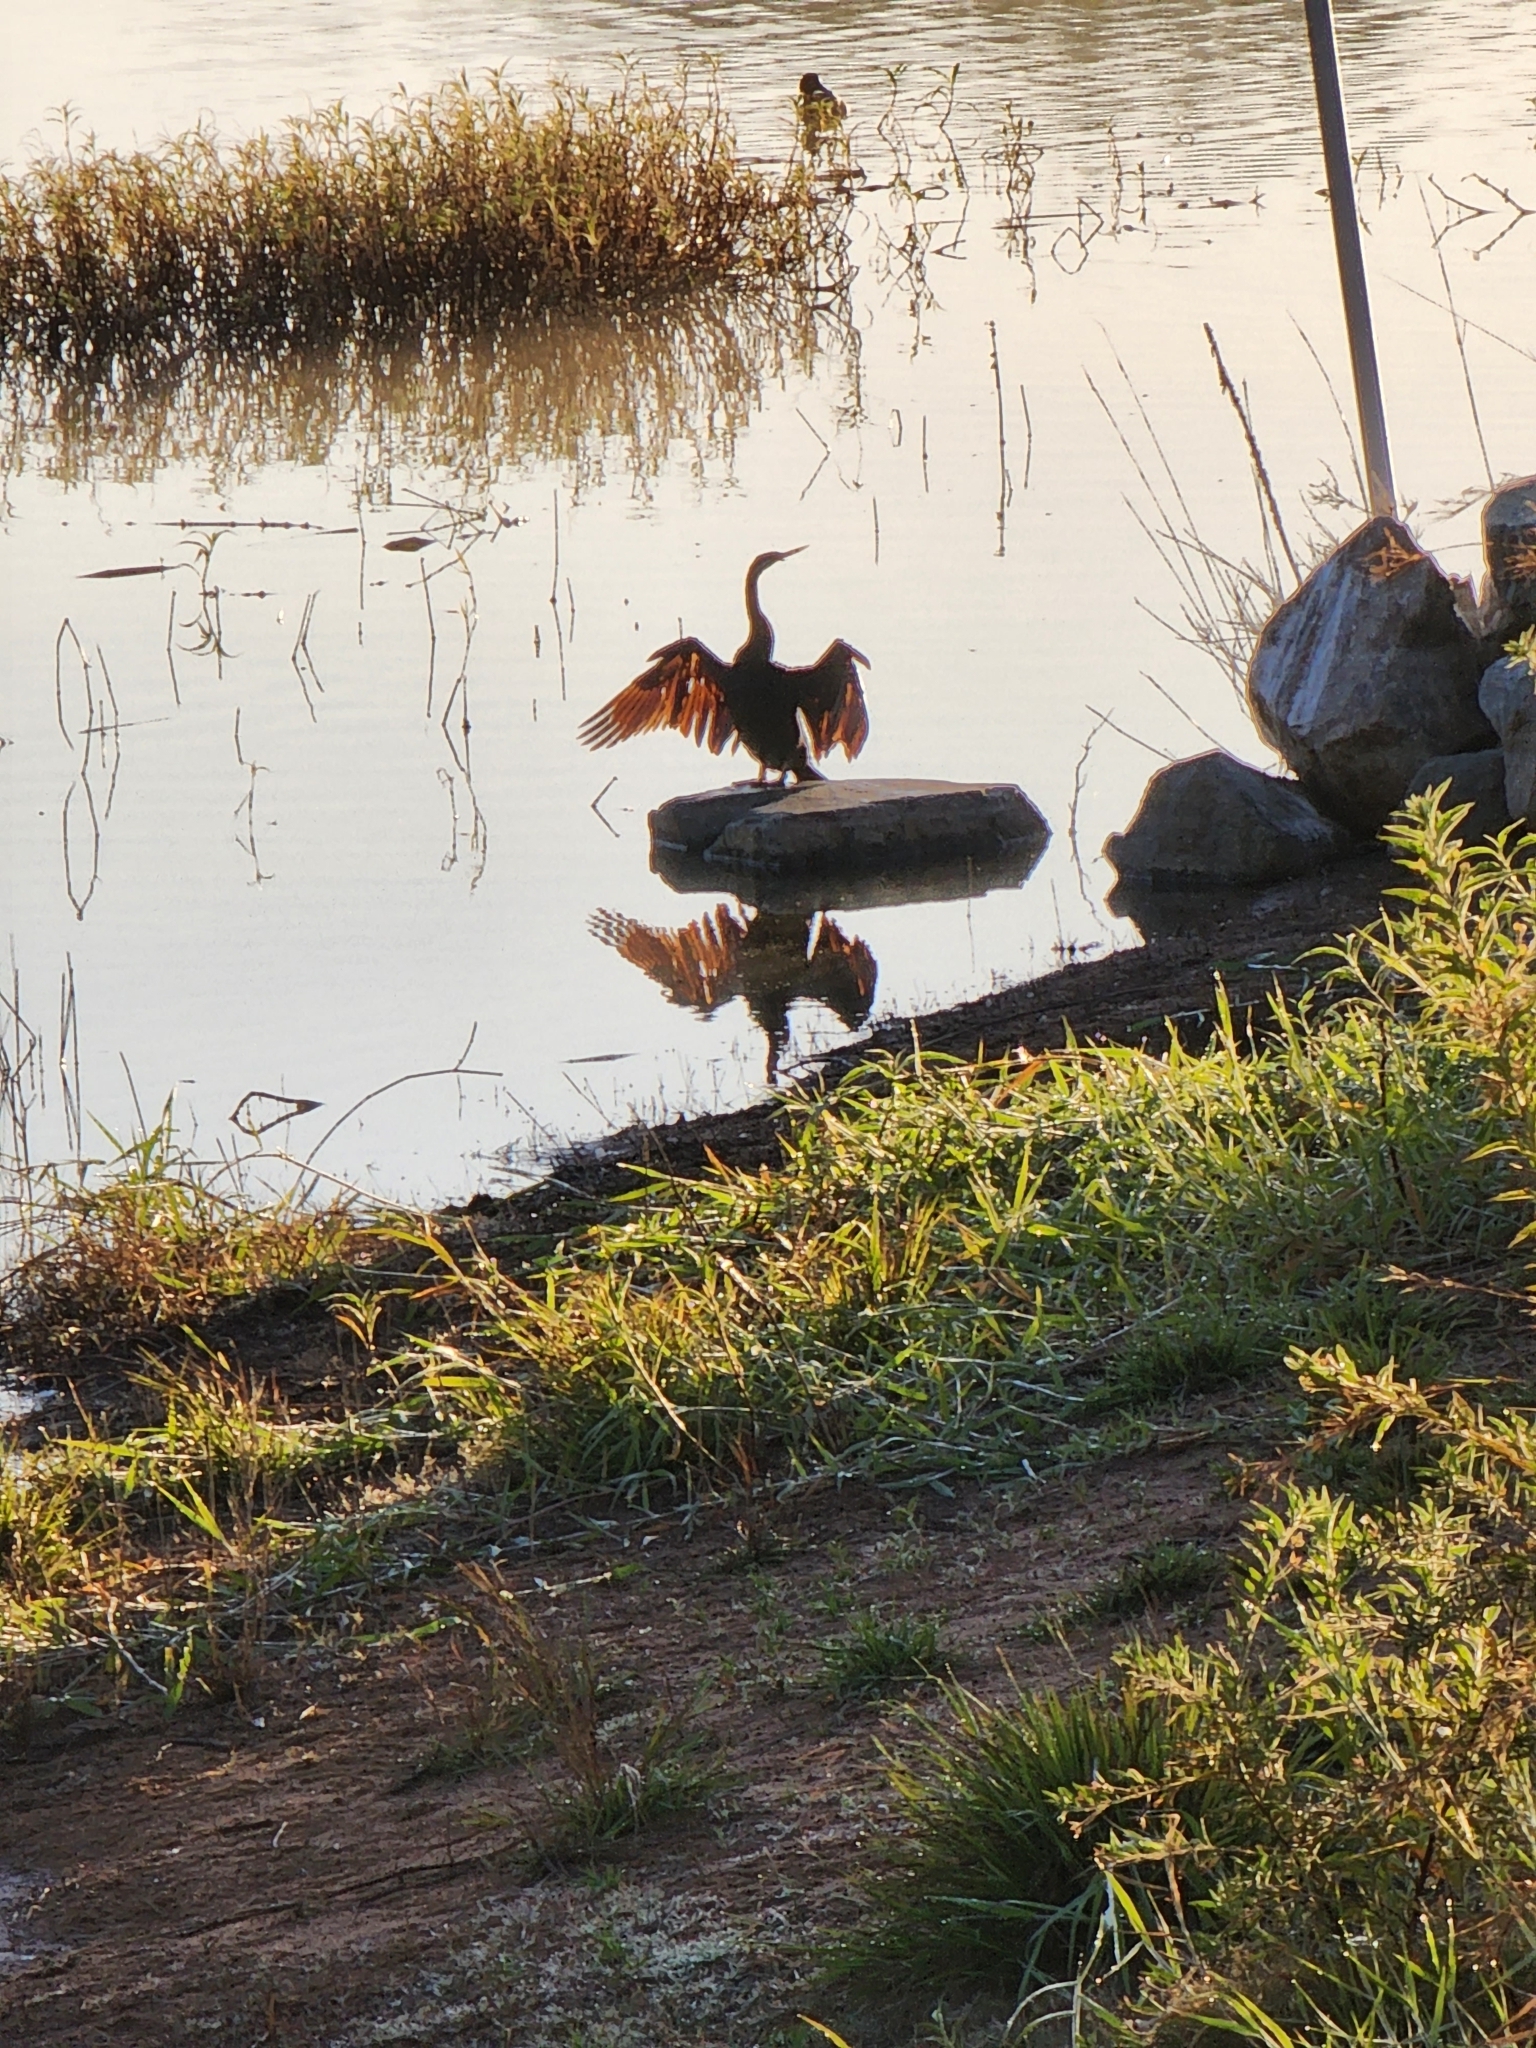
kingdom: Animalia
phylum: Chordata
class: Aves
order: Suliformes
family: Anhingidae
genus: Anhinga
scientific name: Anhinga novaehollandiae
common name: Australasian darter
